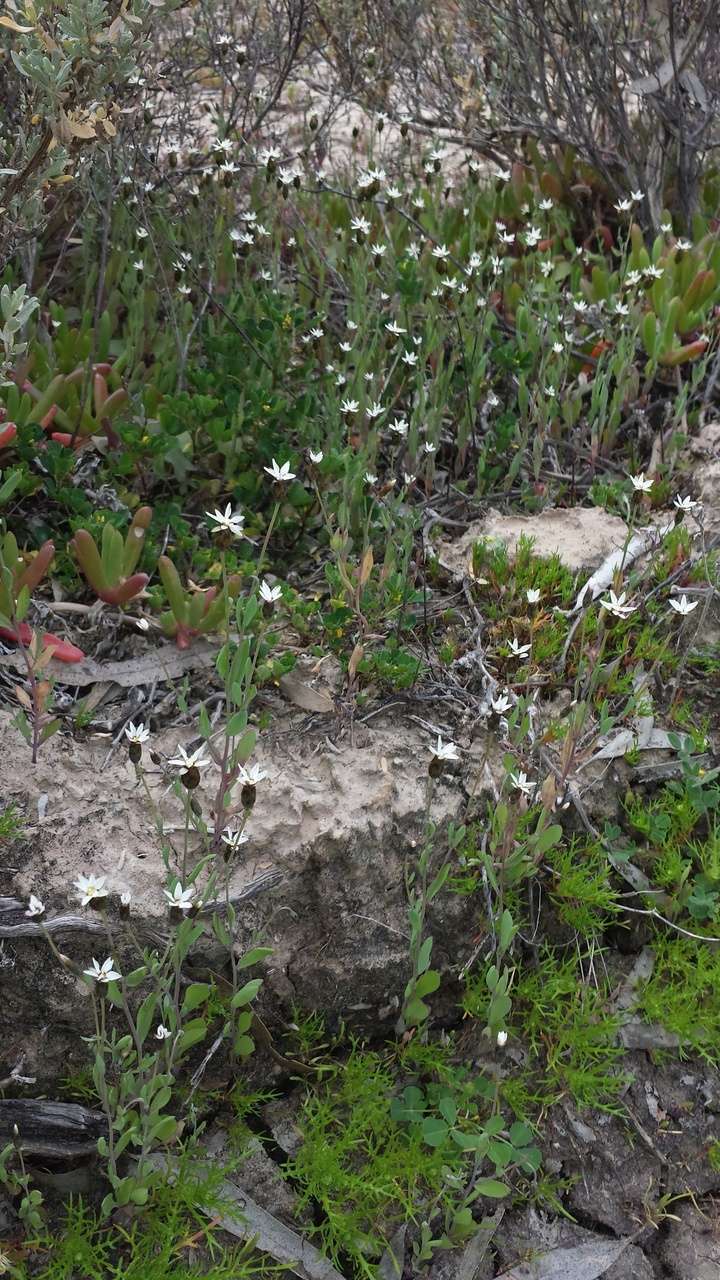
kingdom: Plantae
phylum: Tracheophyta
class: Magnoliopsida
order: Asterales
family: Asteraceae
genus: Rhodanthe
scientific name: Rhodanthe stricta
